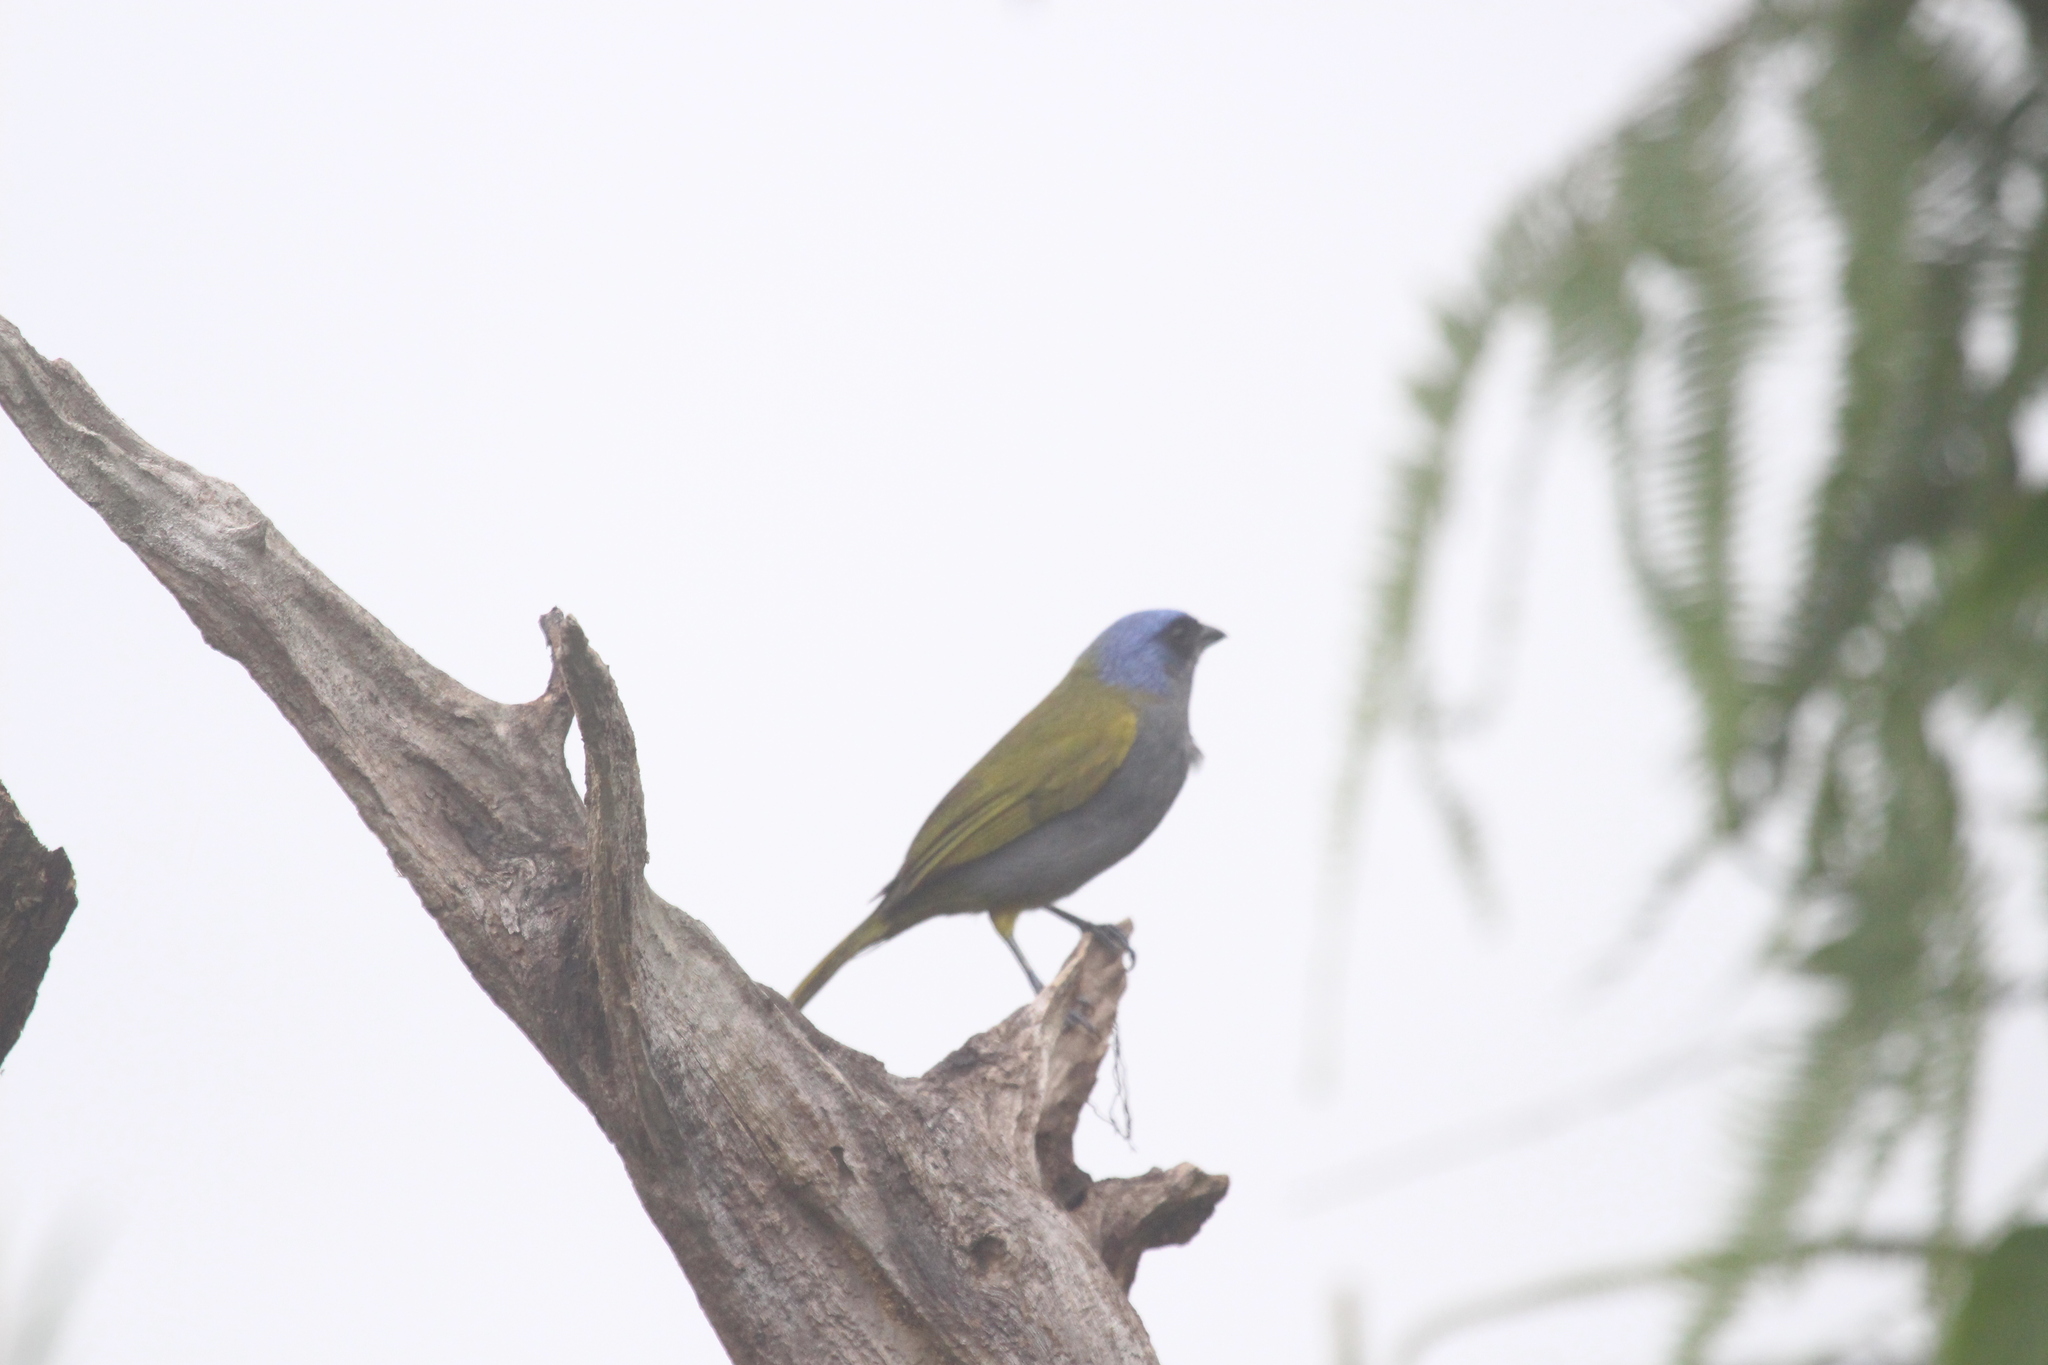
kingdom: Animalia
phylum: Chordata
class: Aves
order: Passeriformes
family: Thraupidae
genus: Sporathraupis
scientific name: Sporathraupis cyanocephala
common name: Blue-capped tanager
